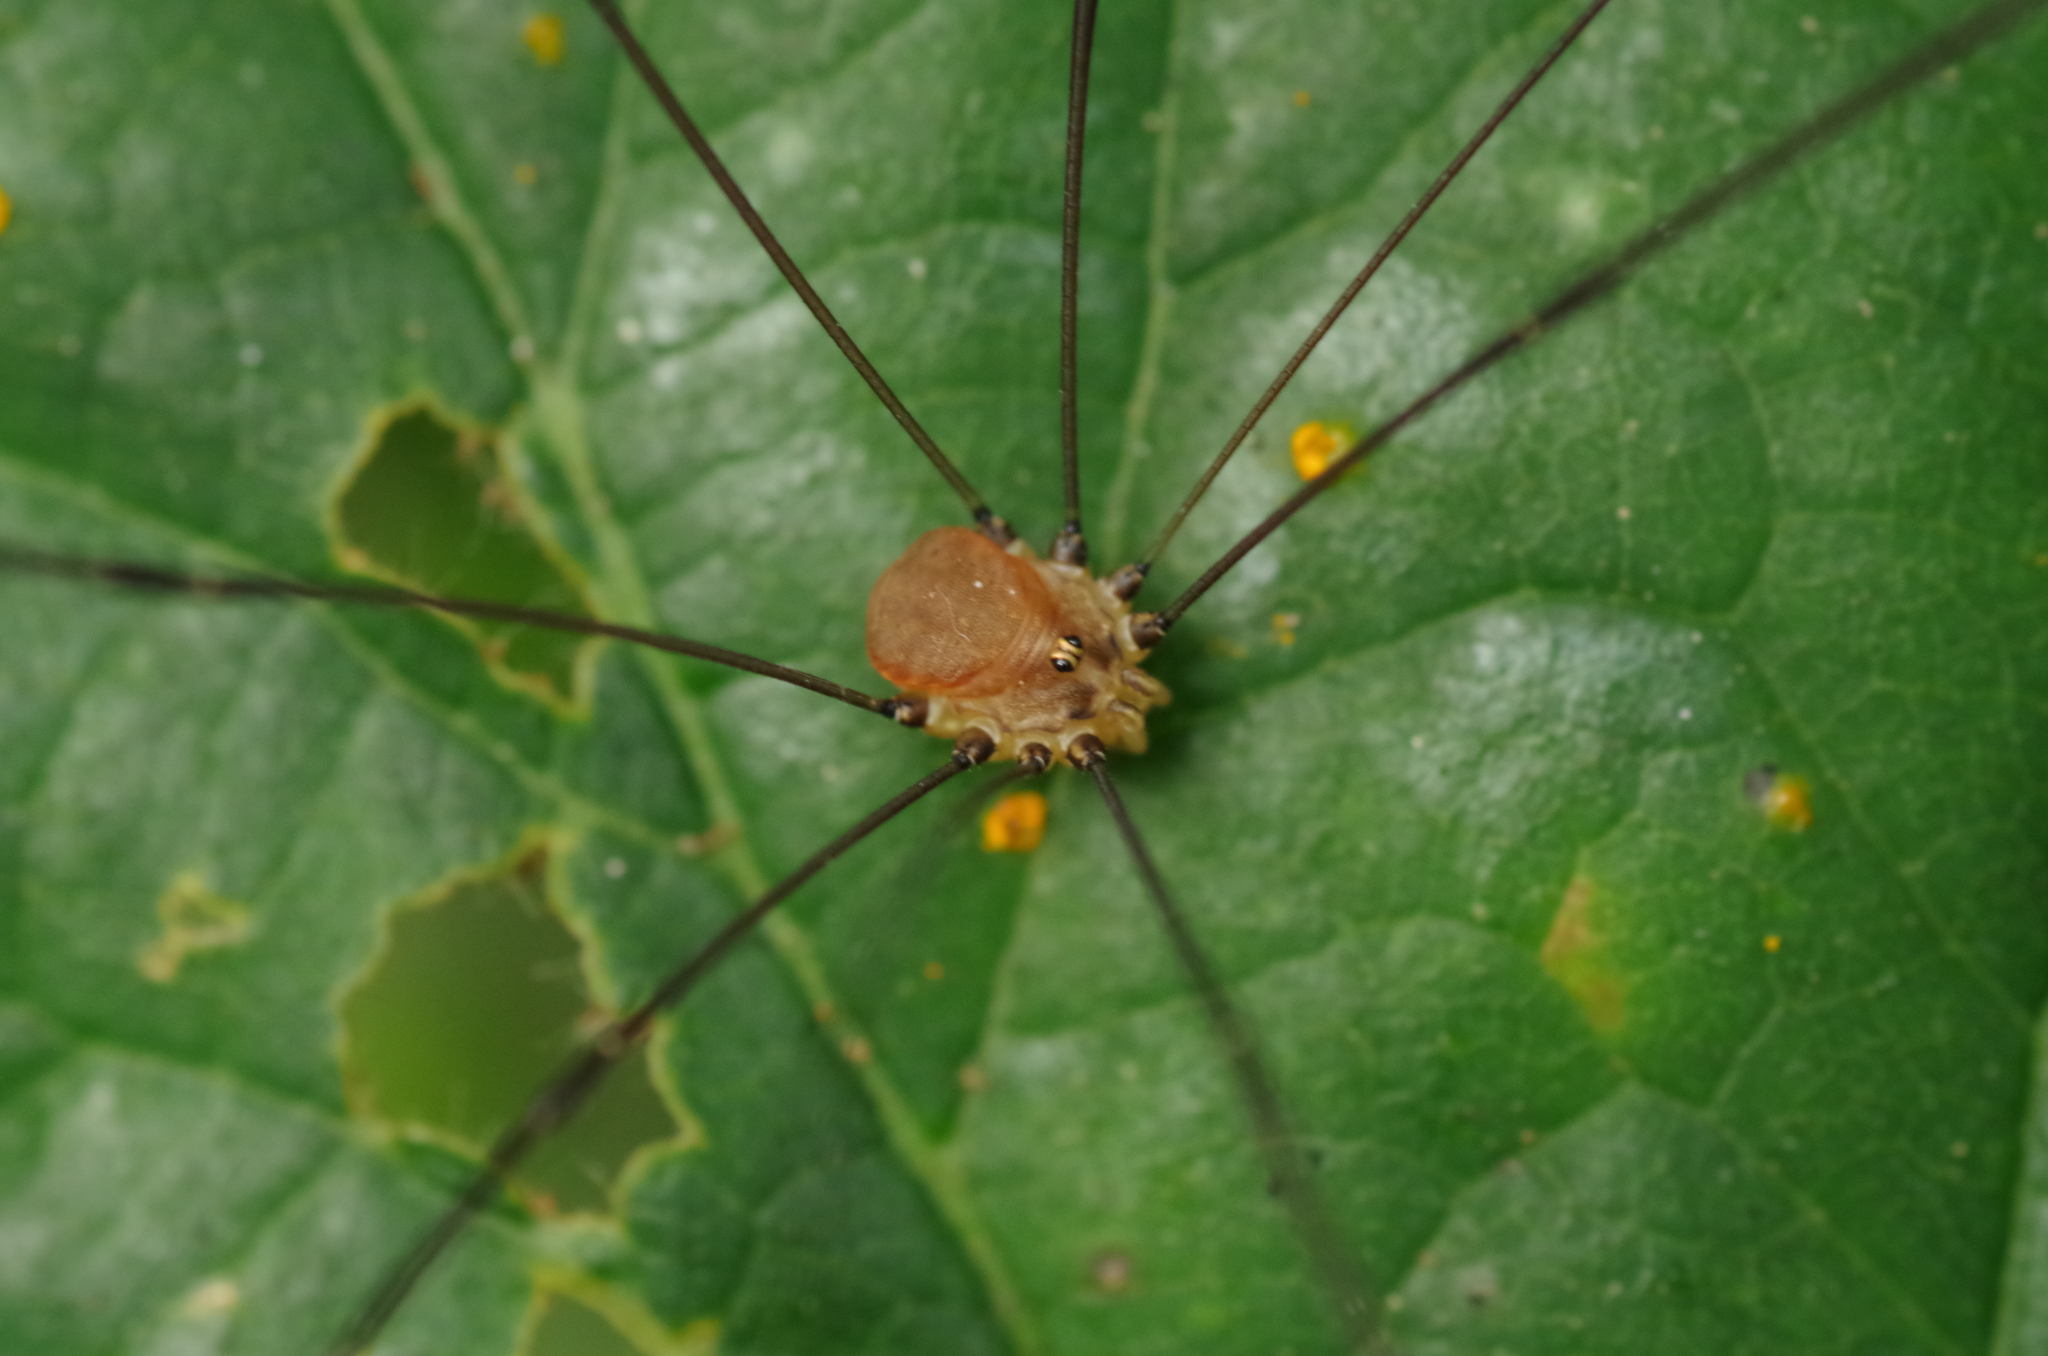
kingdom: Animalia
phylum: Arthropoda
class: Arachnida
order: Opiliones
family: Sclerosomatidae
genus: Leiobunum
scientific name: Leiobunum blackwalli
